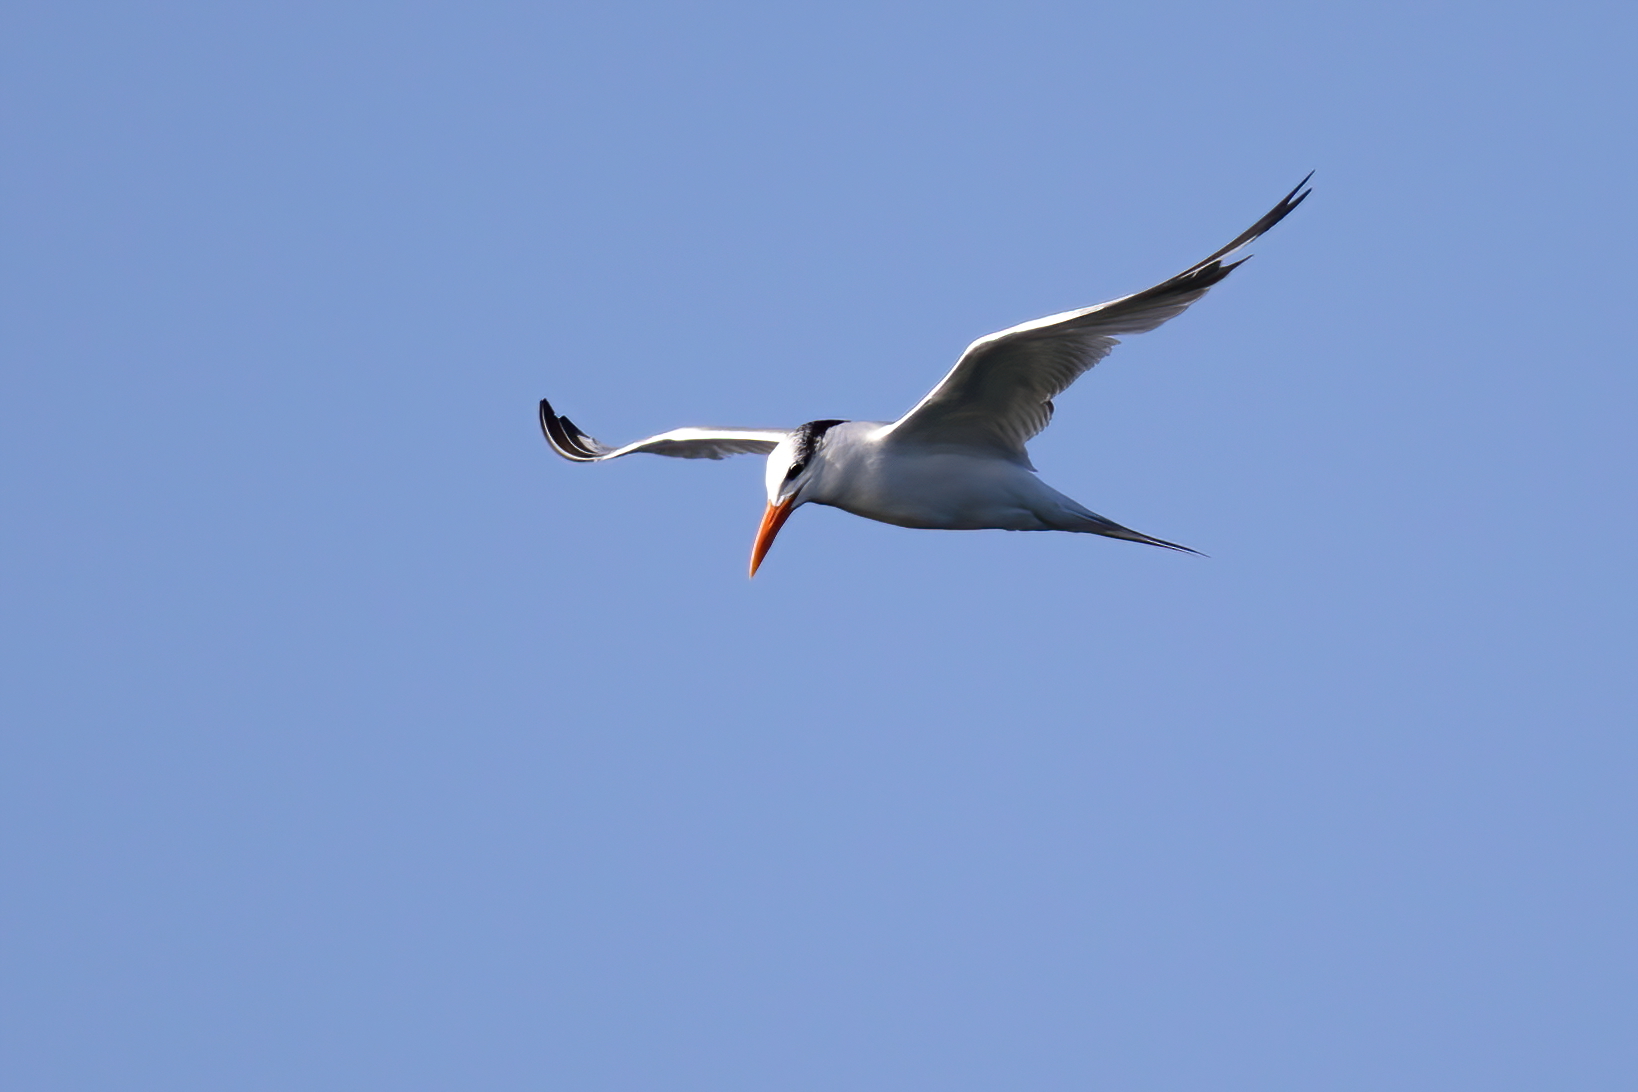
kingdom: Animalia
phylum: Chordata
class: Aves
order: Charadriiformes
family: Laridae
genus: Thalasseus
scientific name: Thalasseus maximus
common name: Royal tern
